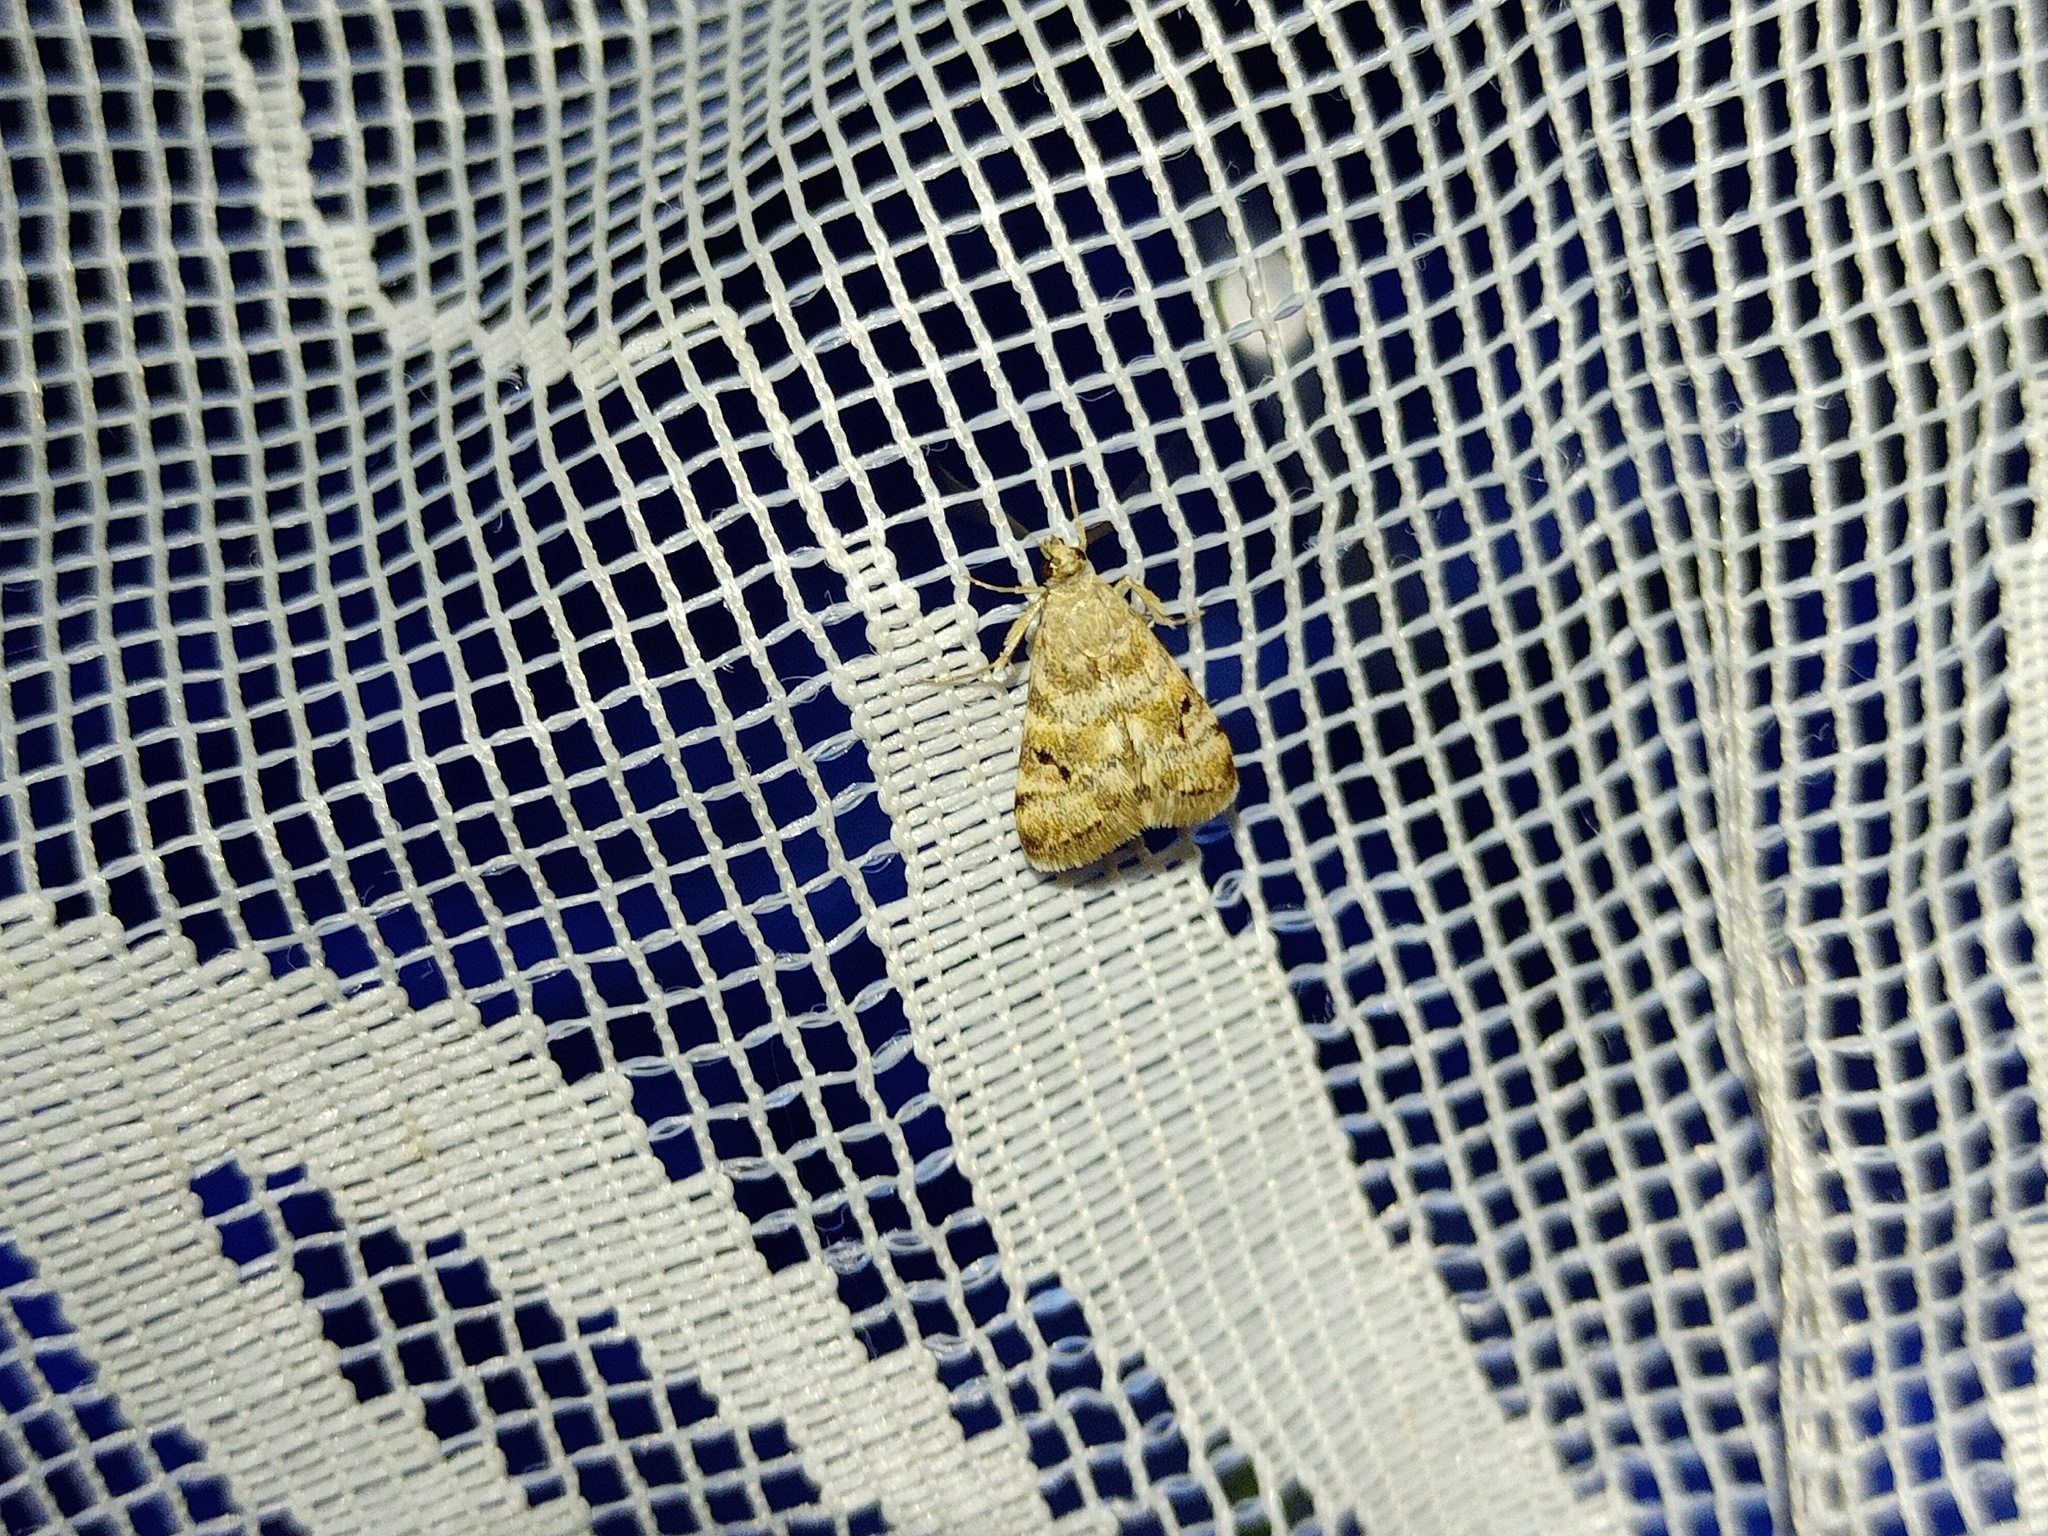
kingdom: Animalia
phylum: Arthropoda
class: Insecta
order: Lepidoptera
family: Crambidae
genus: Noctuelia
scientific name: Noctuelia Aporodes floralis
